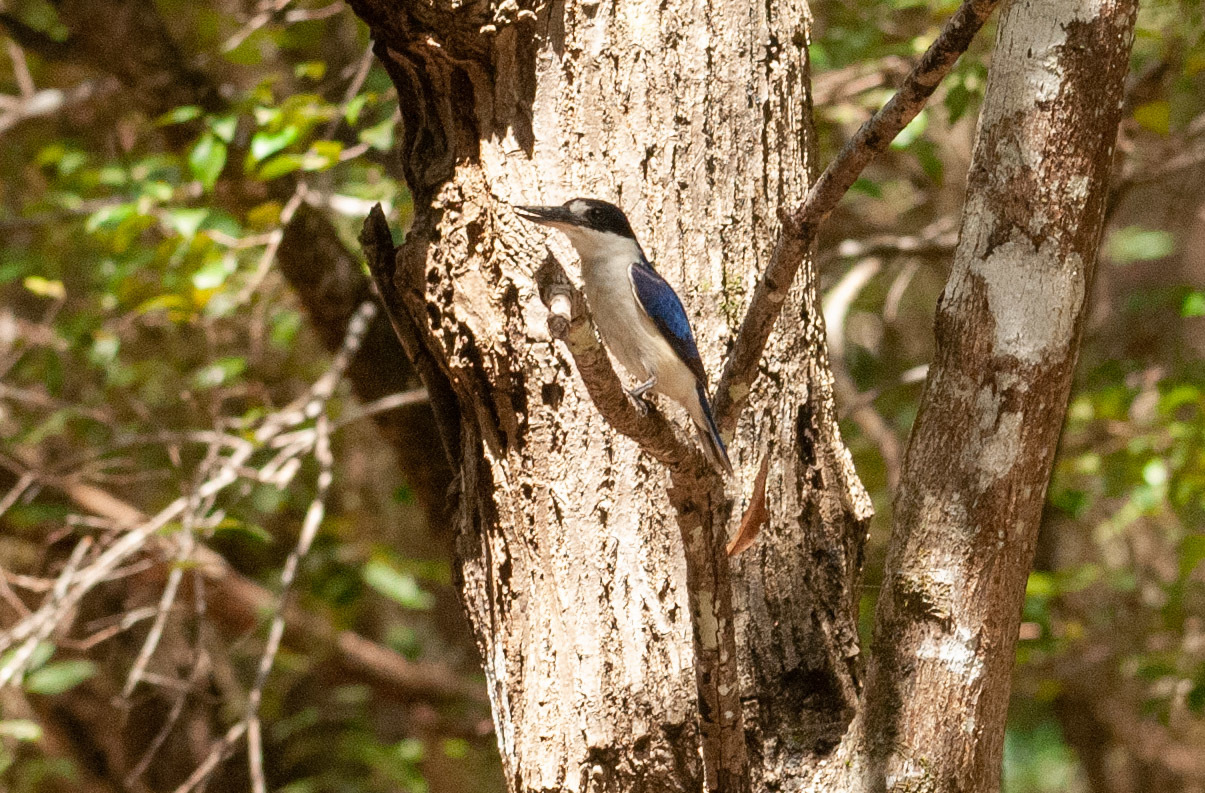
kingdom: Animalia
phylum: Chordata
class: Aves
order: Coraciiformes
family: Alcedinidae
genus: Todiramphus
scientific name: Todiramphus macleayii
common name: Forest kingfisher
